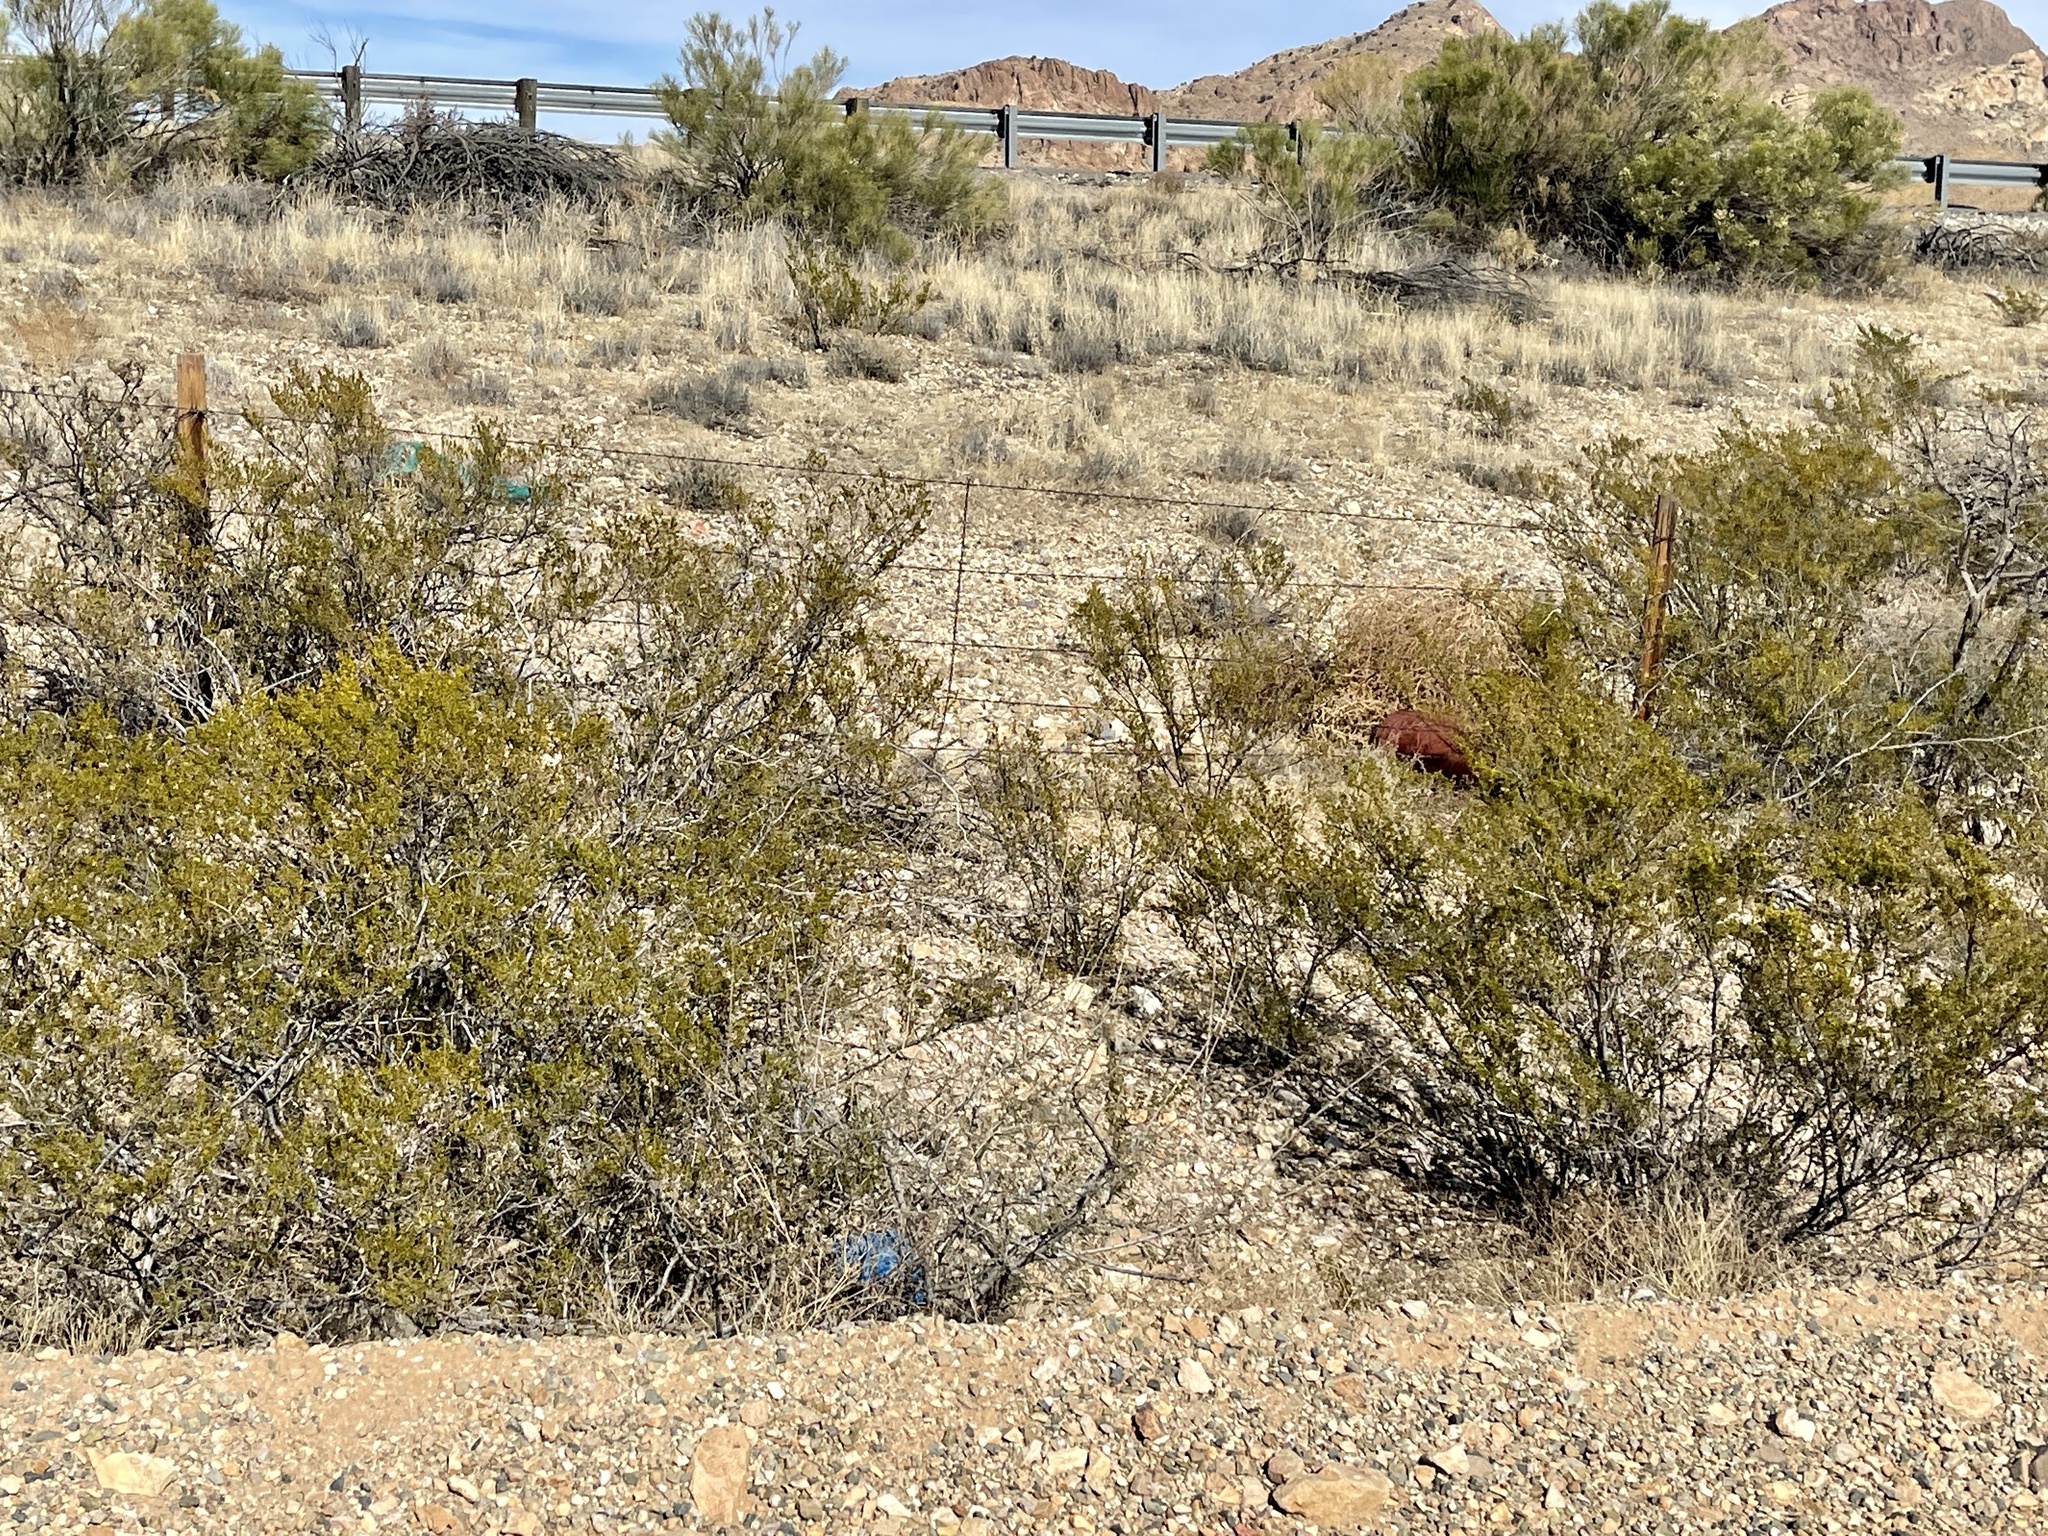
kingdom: Plantae
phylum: Tracheophyta
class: Magnoliopsida
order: Zygophyllales
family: Zygophyllaceae
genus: Larrea
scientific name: Larrea tridentata
